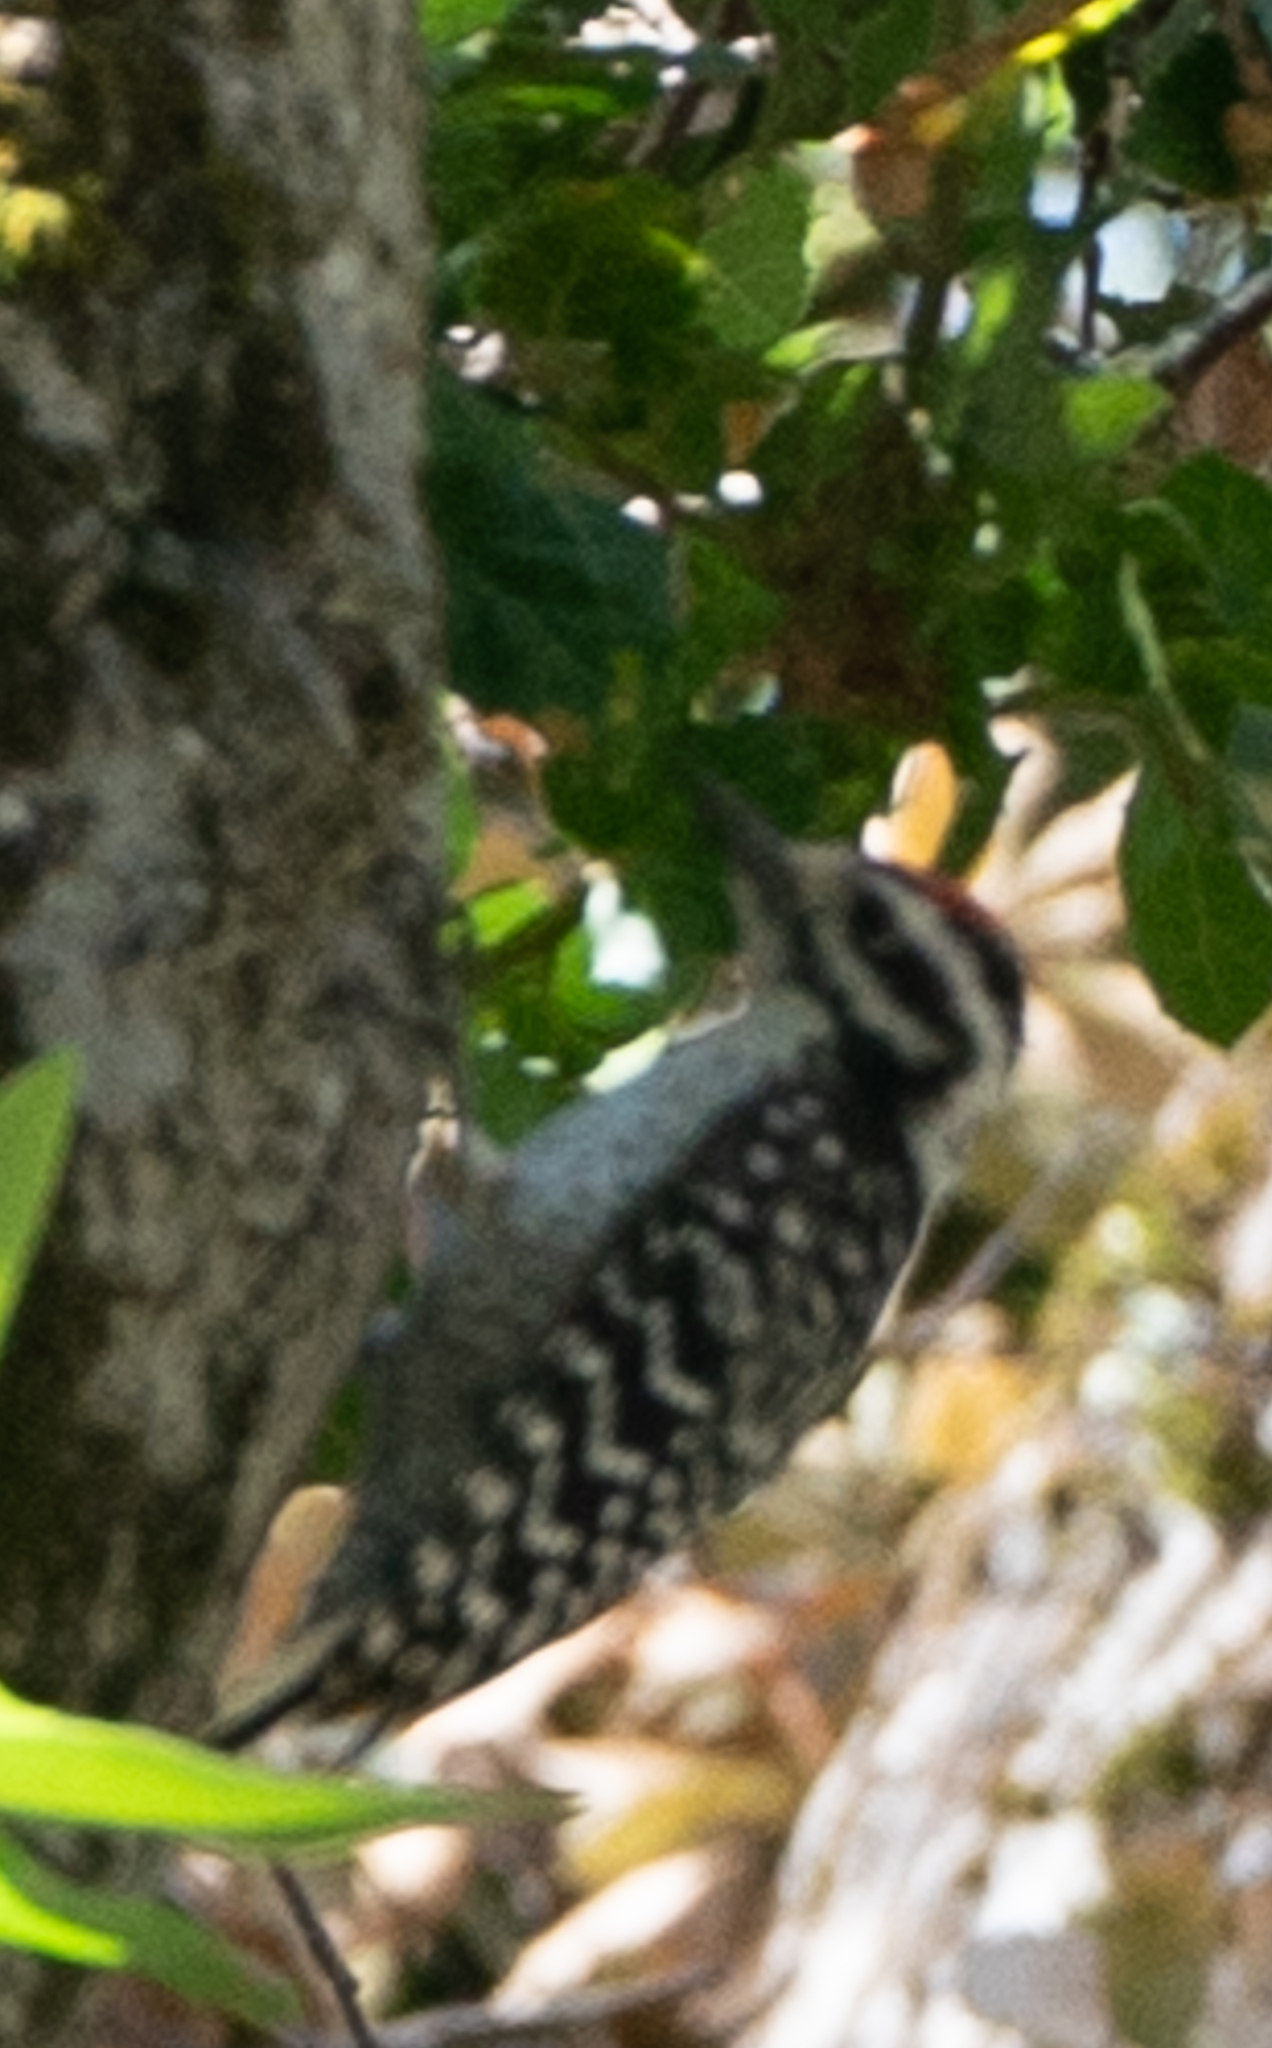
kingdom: Animalia
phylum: Chordata
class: Aves
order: Piciformes
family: Picidae
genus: Dryobates
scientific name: Dryobates nuttallii
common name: Nuttall's woodpecker
